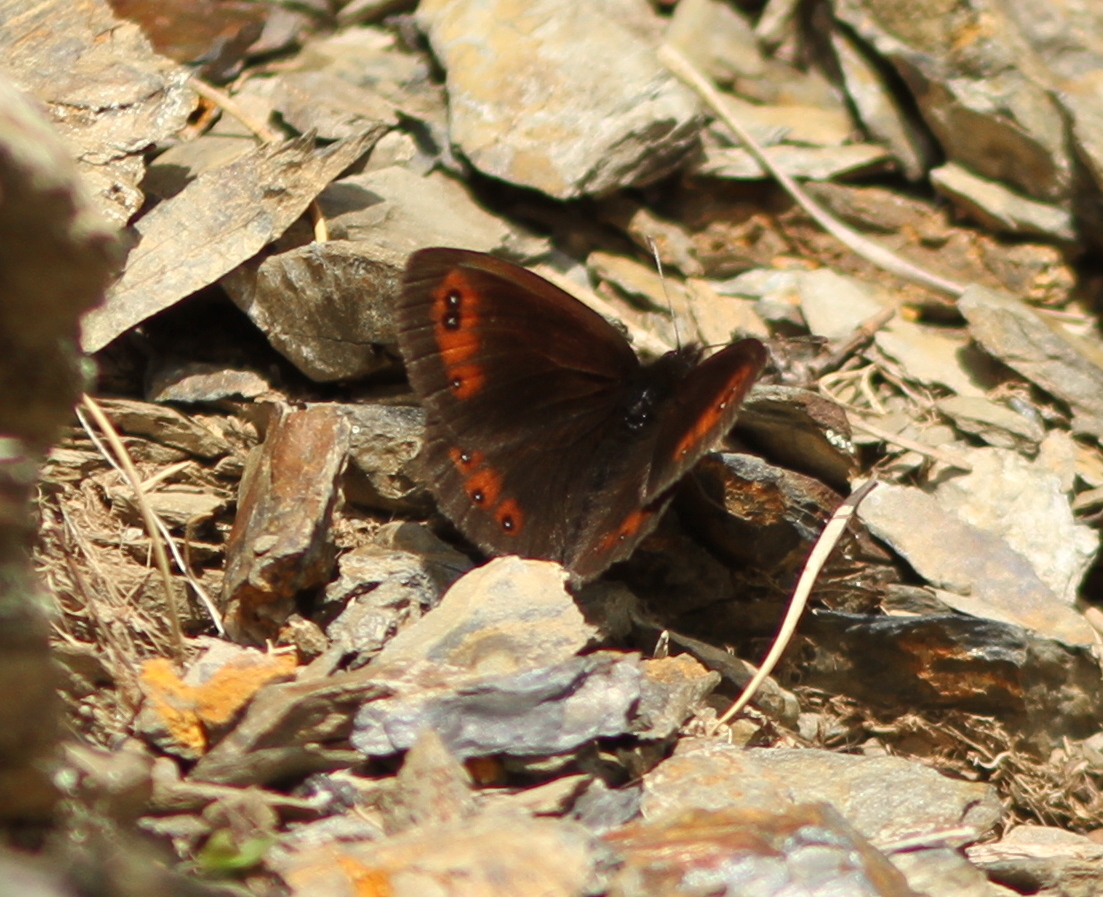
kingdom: Animalia
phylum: Arthropoda
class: Insecta
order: Lepidoptera
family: Nymphalidae
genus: Erebia
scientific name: Erebia meolans
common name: Piedmont ringlet
